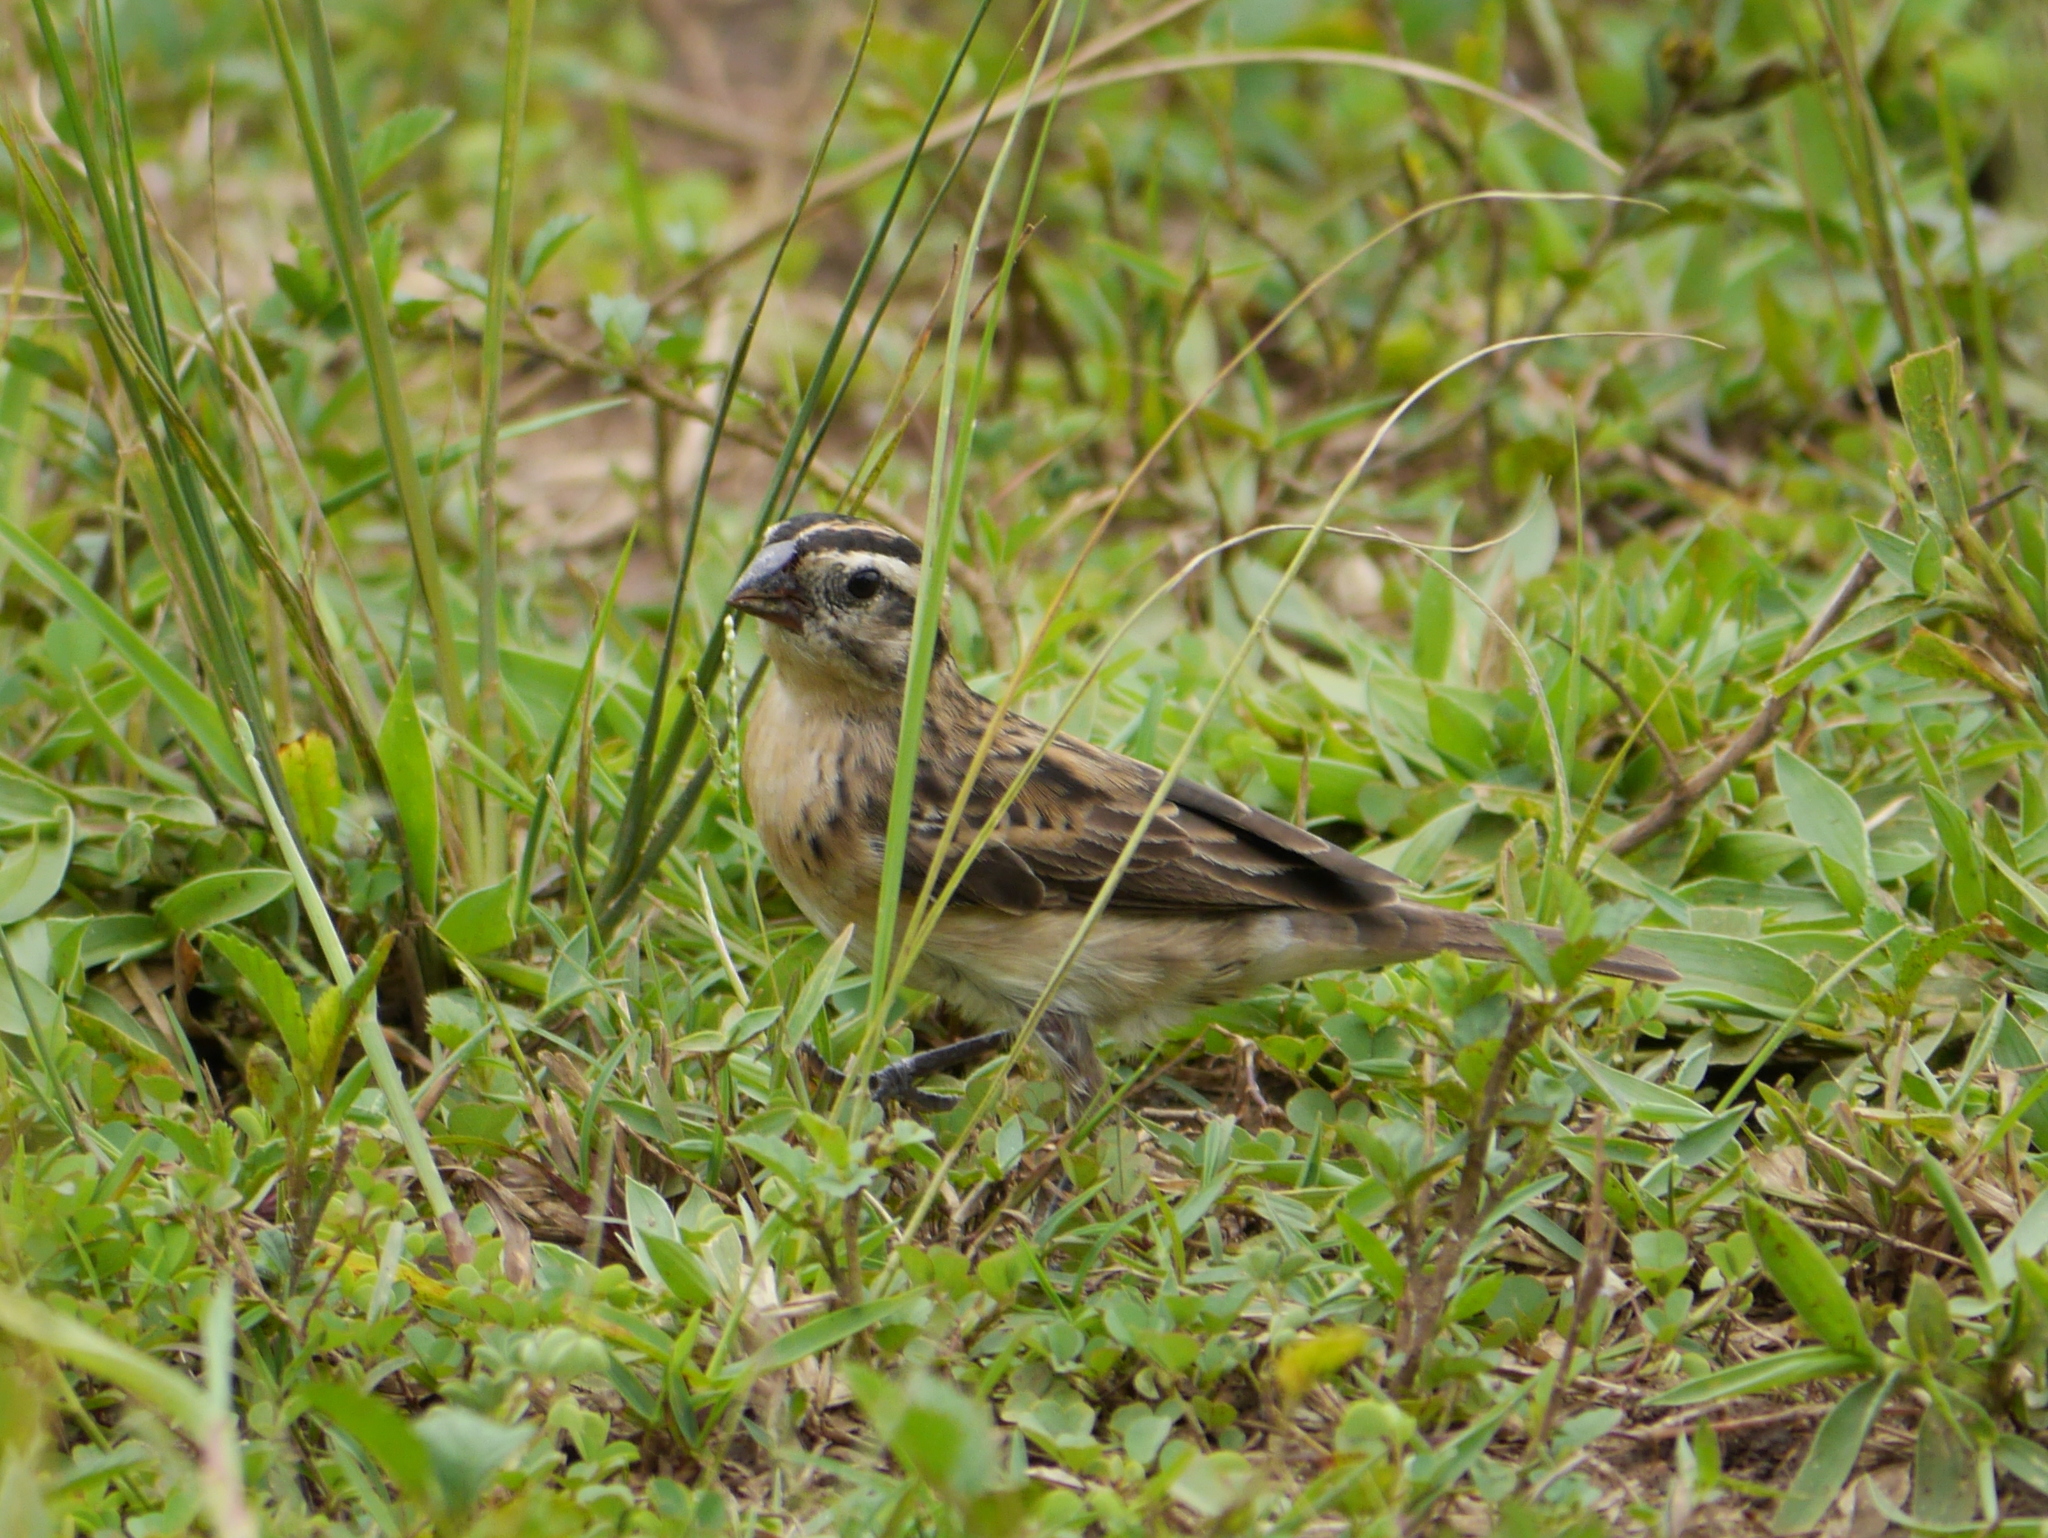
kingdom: Animalia
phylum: Chordata
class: Aves
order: Passeriformes
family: Viduidae
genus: Vidua
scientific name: Vidua macroura
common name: Pin-tailed whydah
